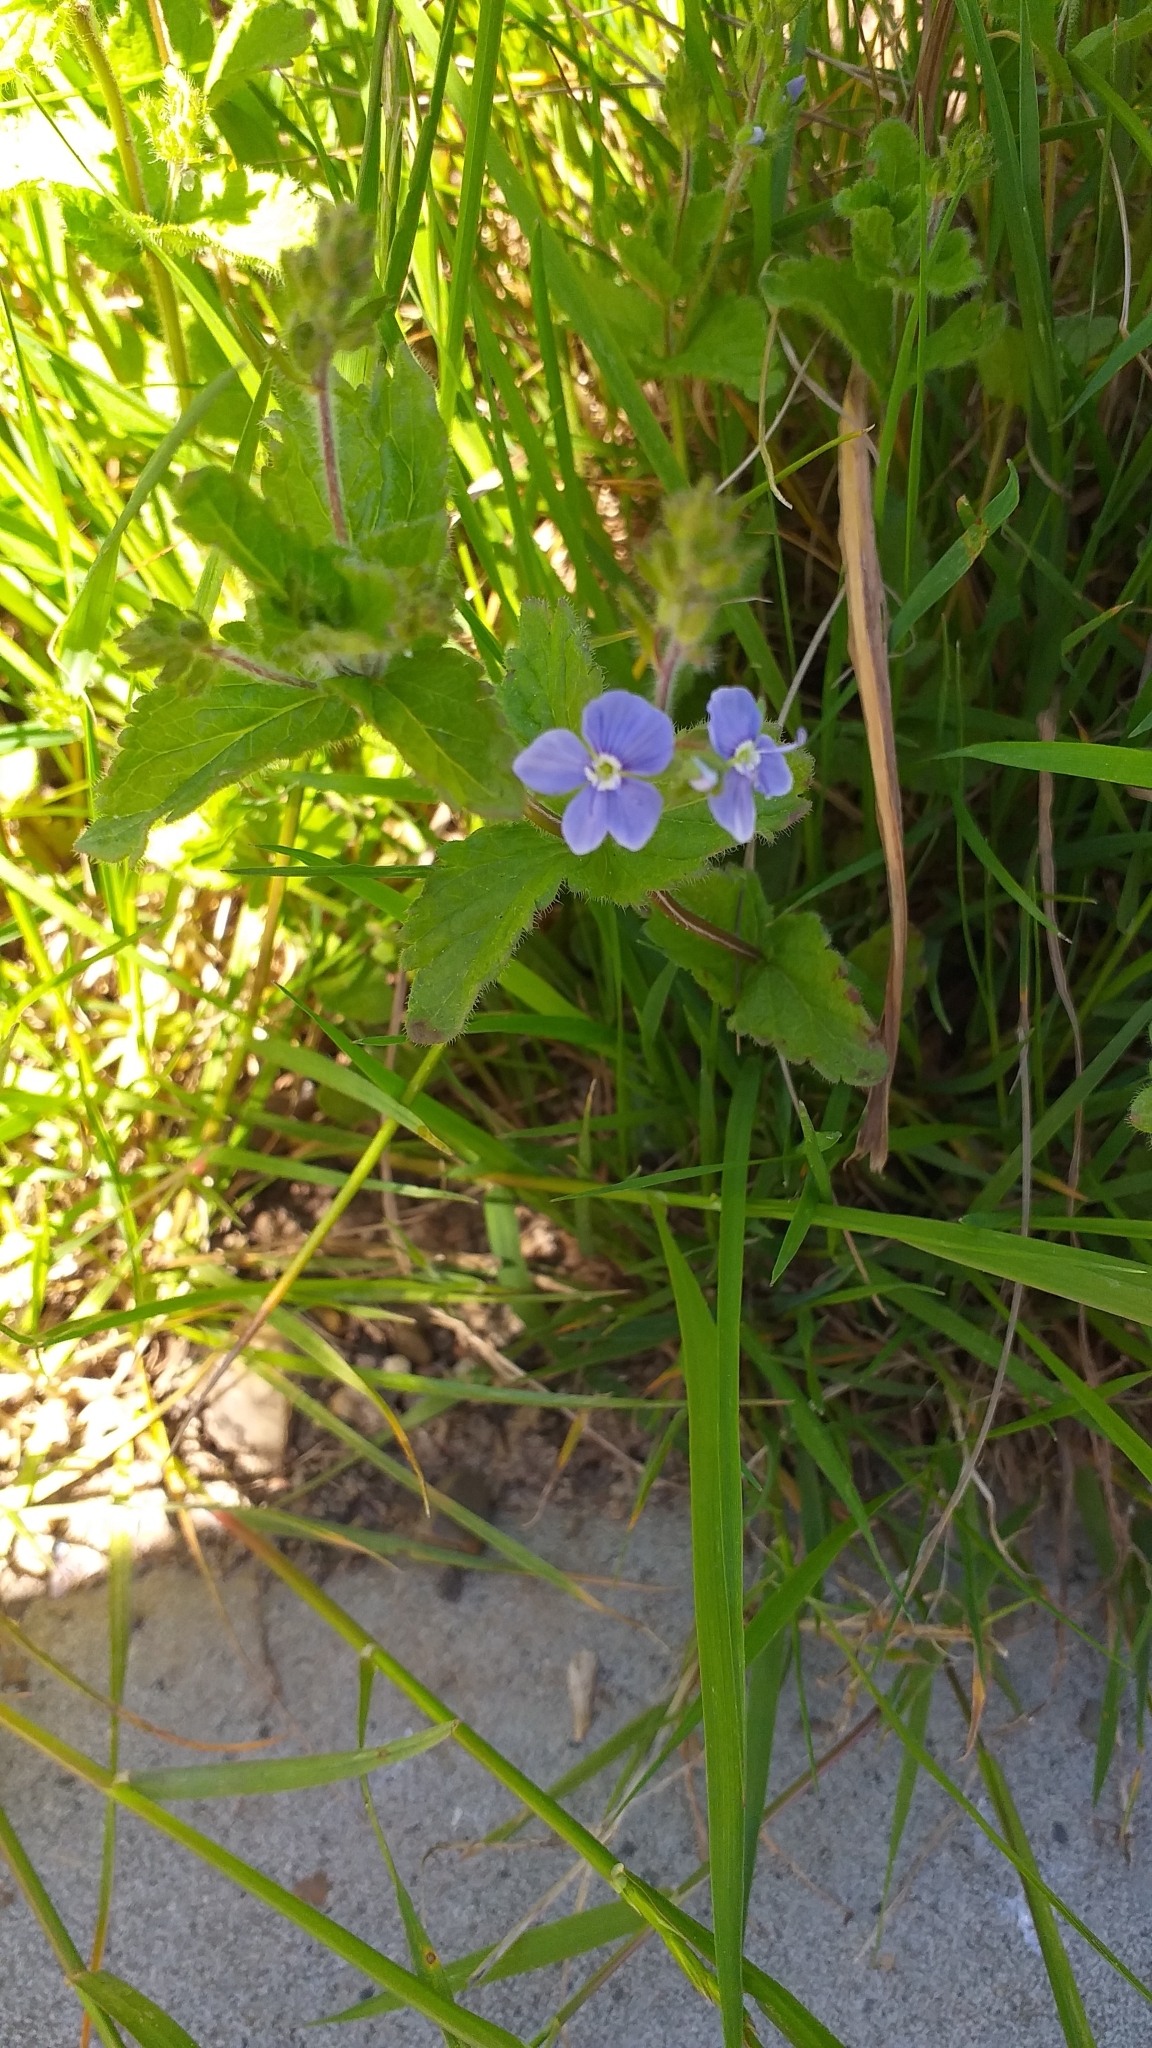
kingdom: Plantae
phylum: Tracheophyta
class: Magnoliopsida
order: Lamiales
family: Plantaginaceae
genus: Veronica
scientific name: Veronica chamaedrys
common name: Germander speedwell
